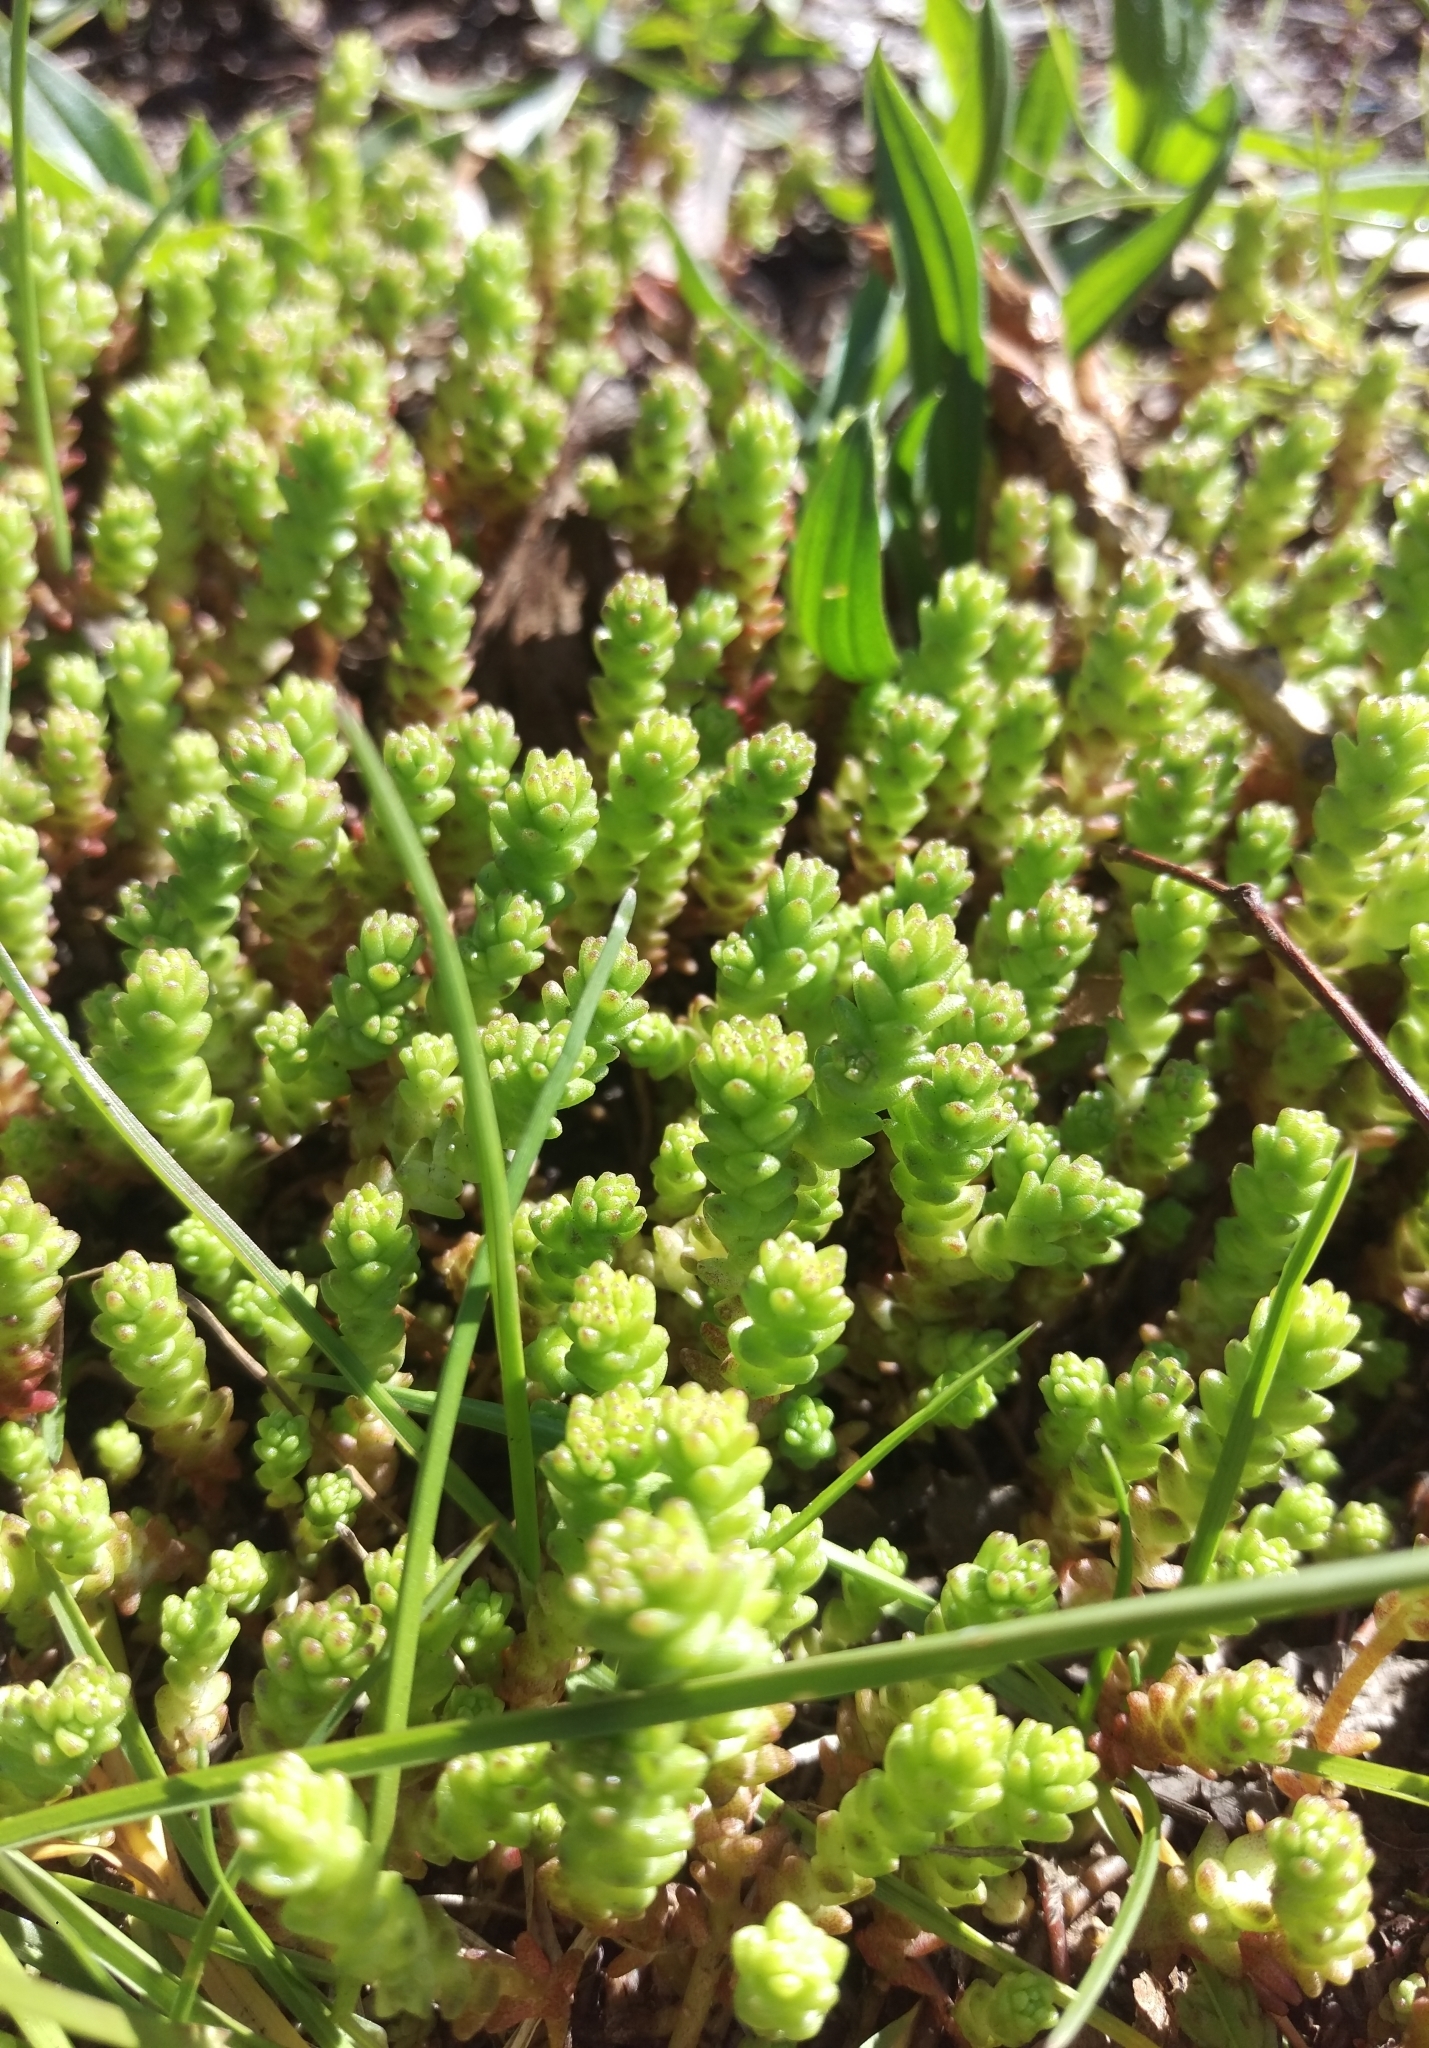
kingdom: Plantae
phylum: Tracheophyta
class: Magnoliopsida
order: Saxifragales
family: Crassulaceae
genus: Sedum
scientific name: Sedum acre
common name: Biting stonecrop
